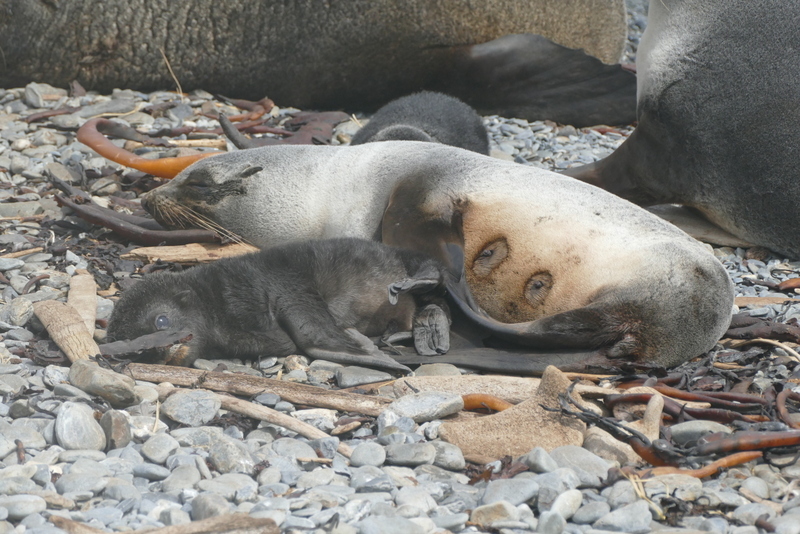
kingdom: Animalia
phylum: Chordata
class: Mammalia
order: Carnivora
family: Otariidae
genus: Arctocephalus
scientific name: Arctocephalus gazella
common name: Antarctic fur seal
